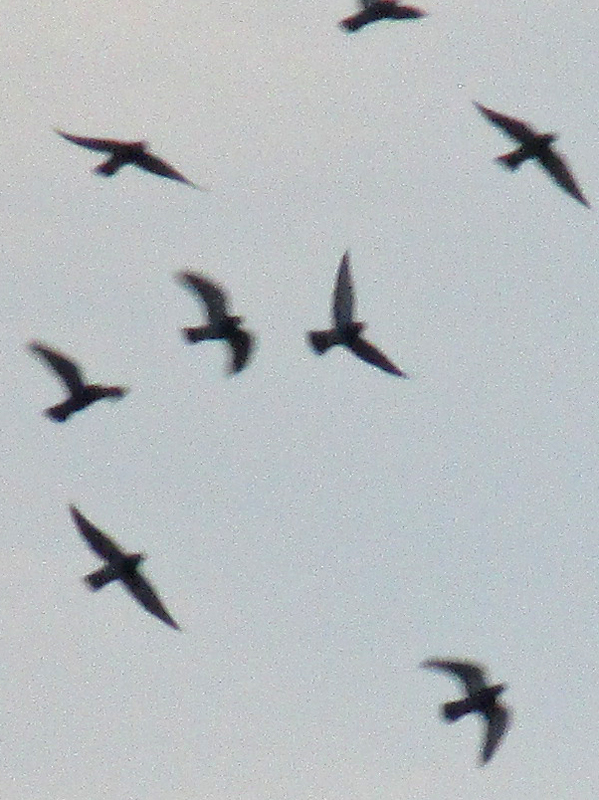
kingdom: Animalia
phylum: Chordata
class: Aves
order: Columbiformes
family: Columbidae
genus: Columba
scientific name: Columba livia
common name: Rock pigeon
